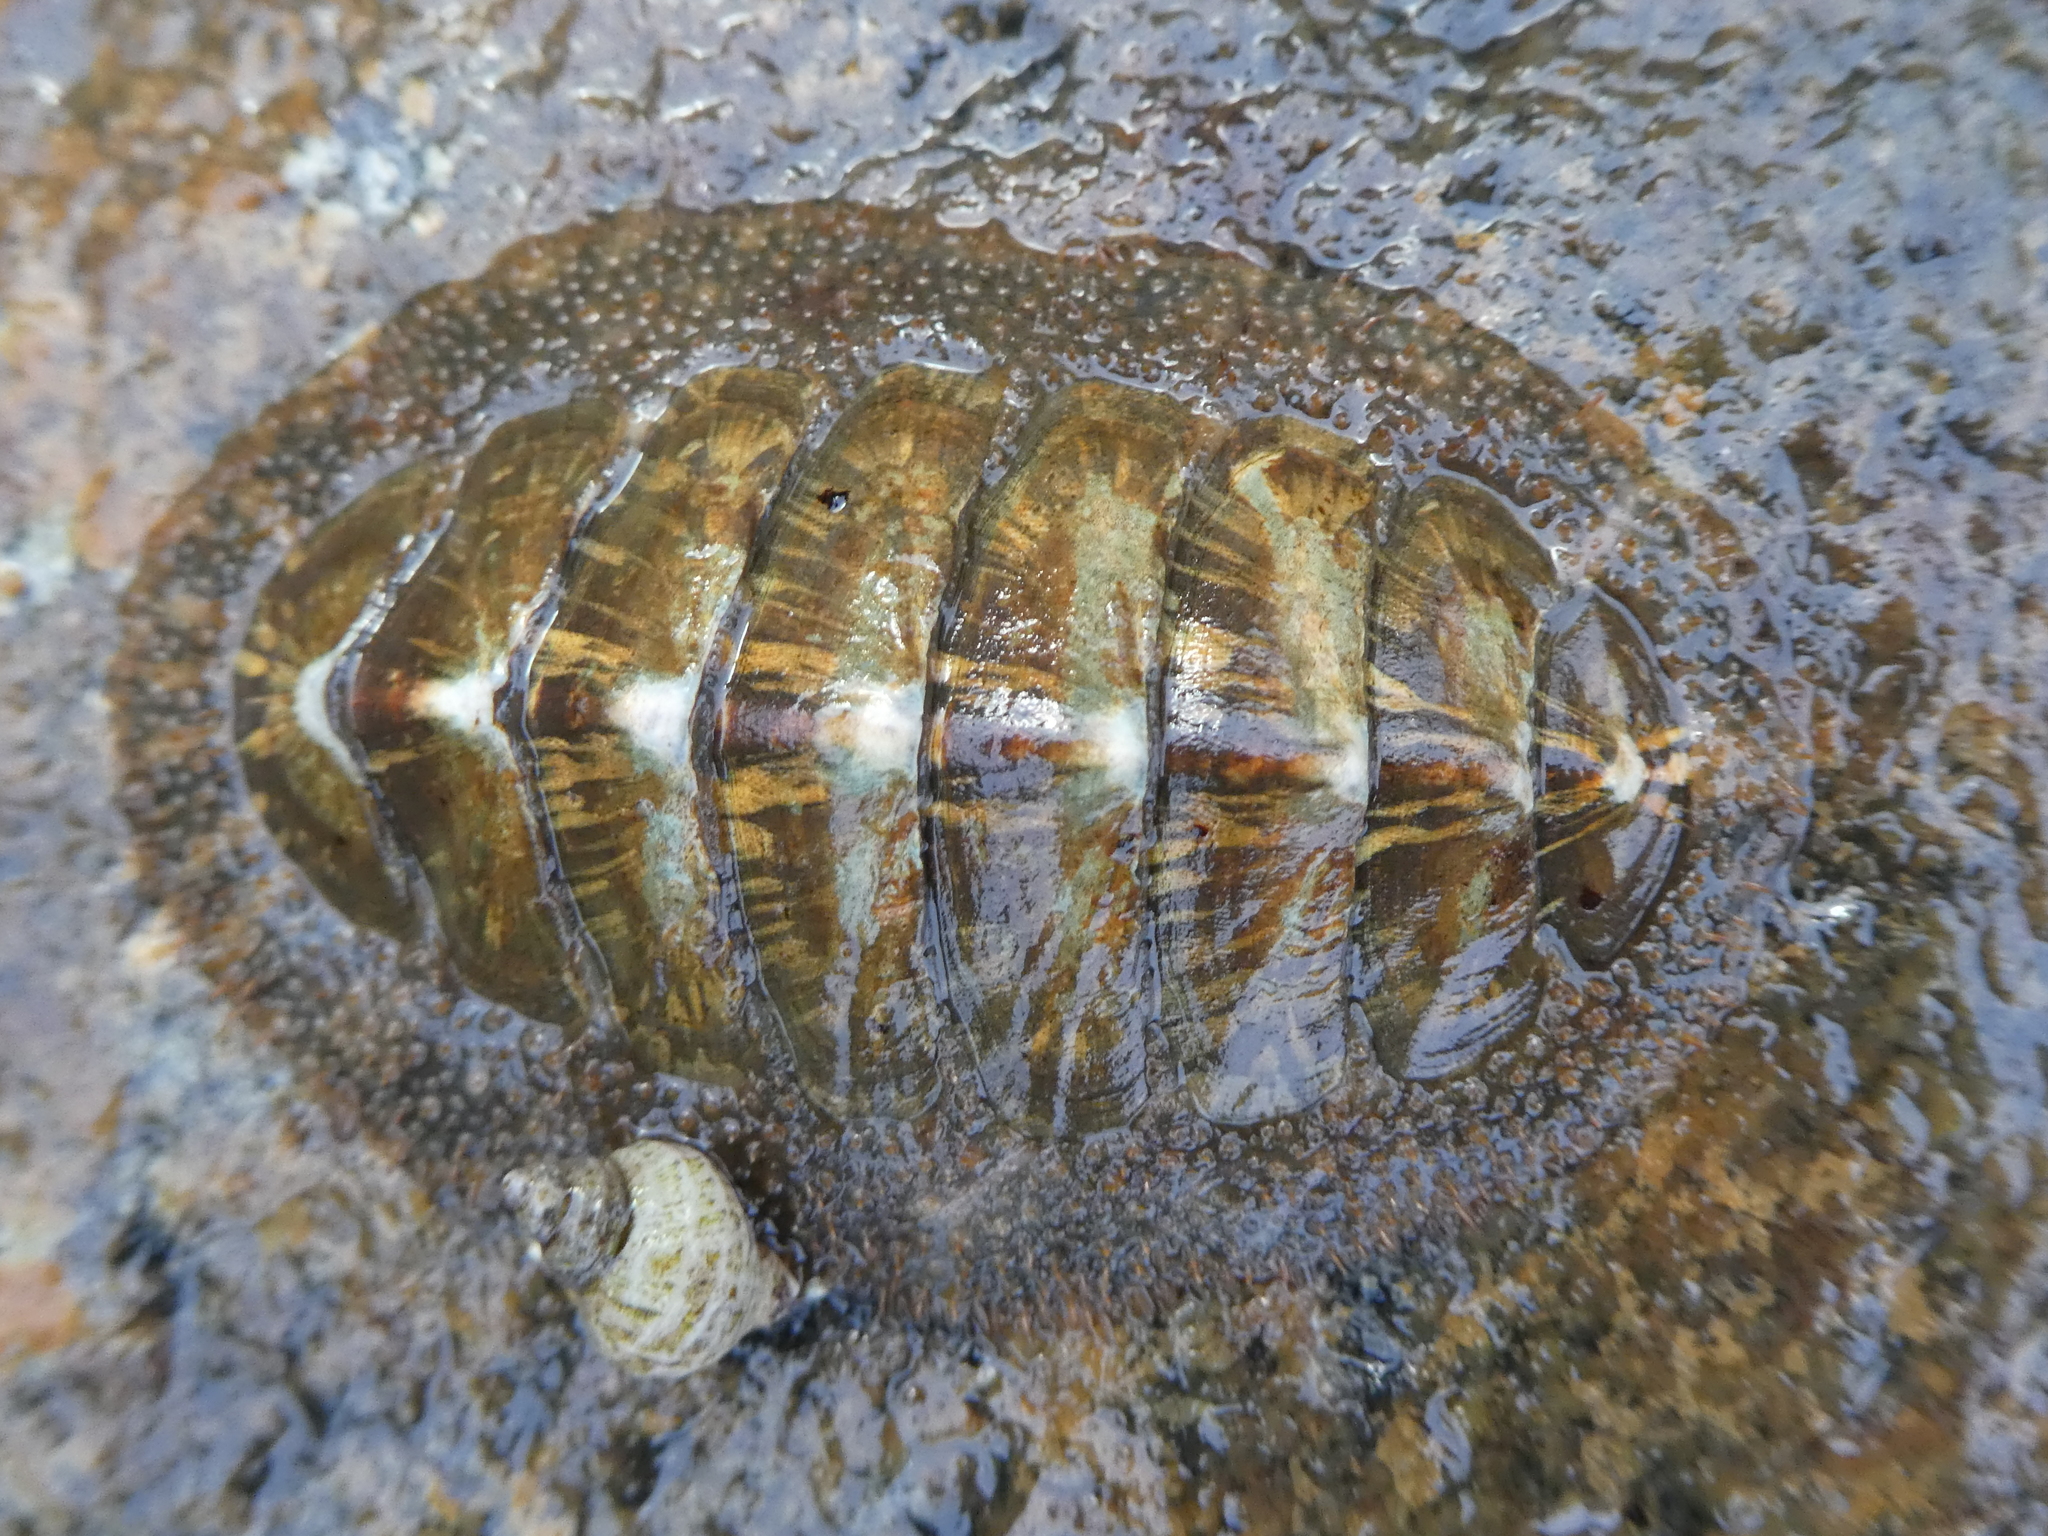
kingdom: Animalia
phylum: Mollusca
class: Polyplacophora
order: Chitonida
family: Mopaliidae
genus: Mopalia
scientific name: Mopalia lignosa
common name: Woody chiton
